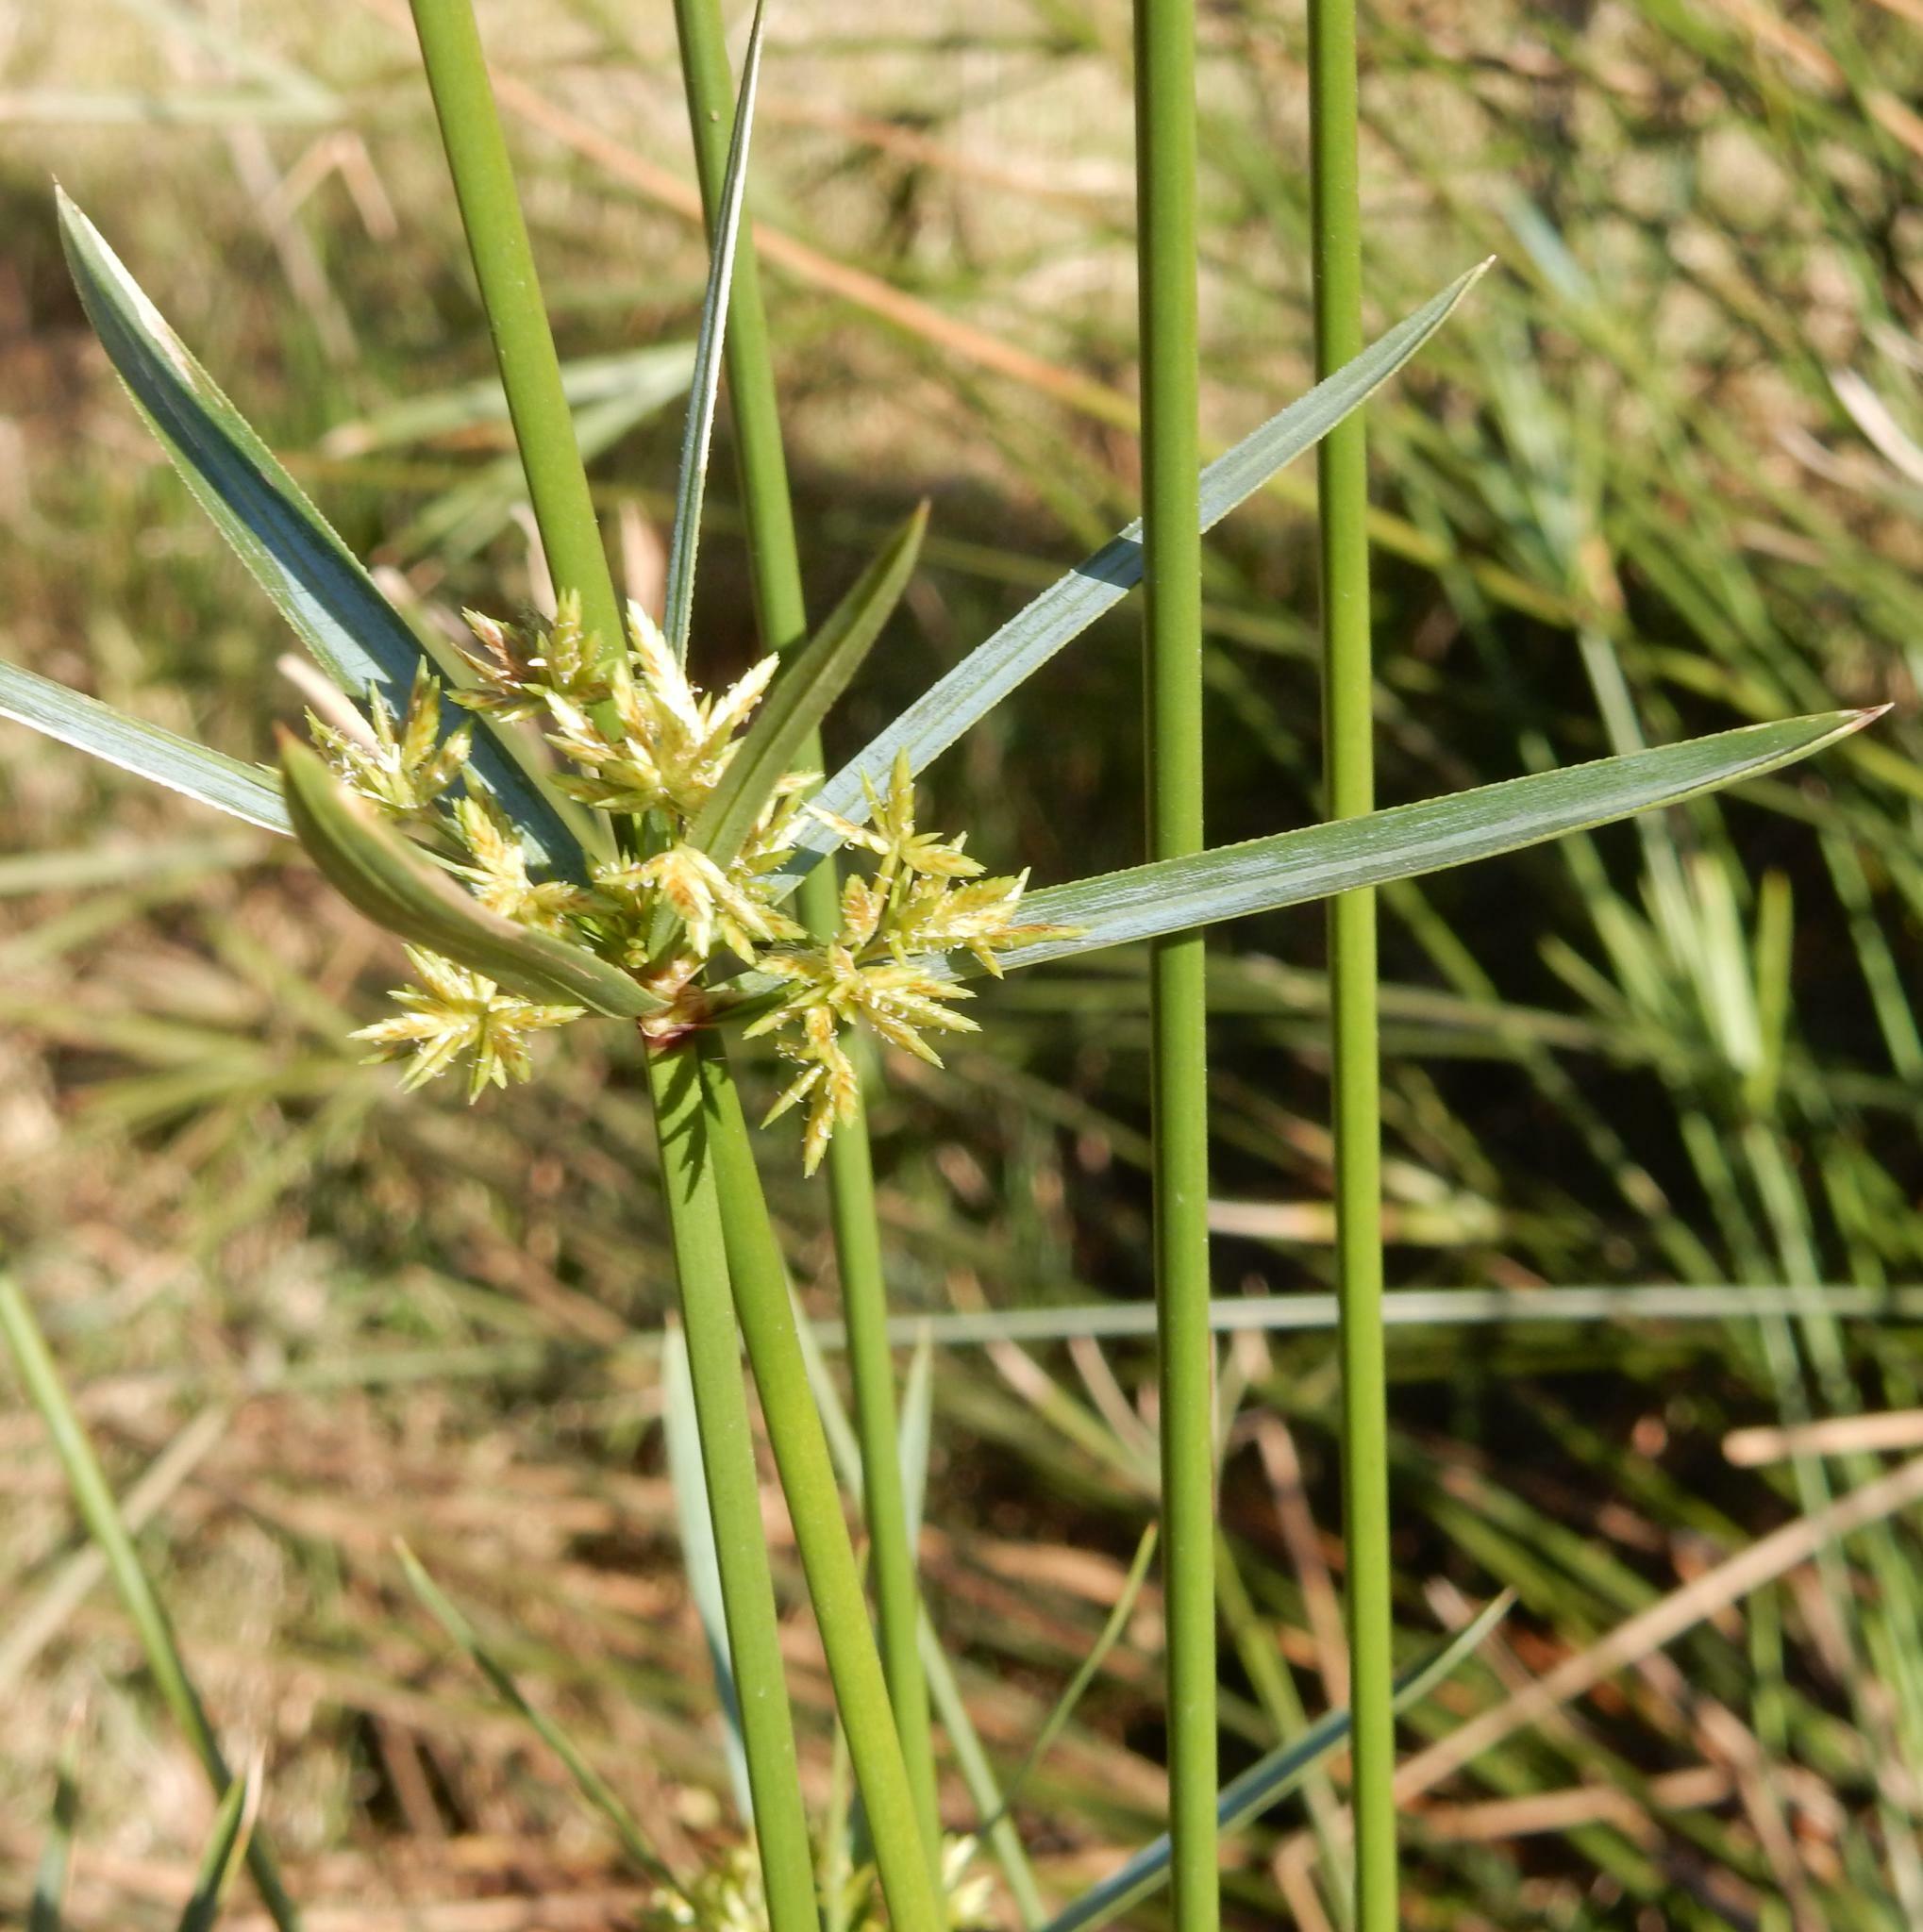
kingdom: Plantae
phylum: Tracheophyta
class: Liliopsida
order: Poales
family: Cyperaceae
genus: Cyperus
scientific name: Cyperus textilis
